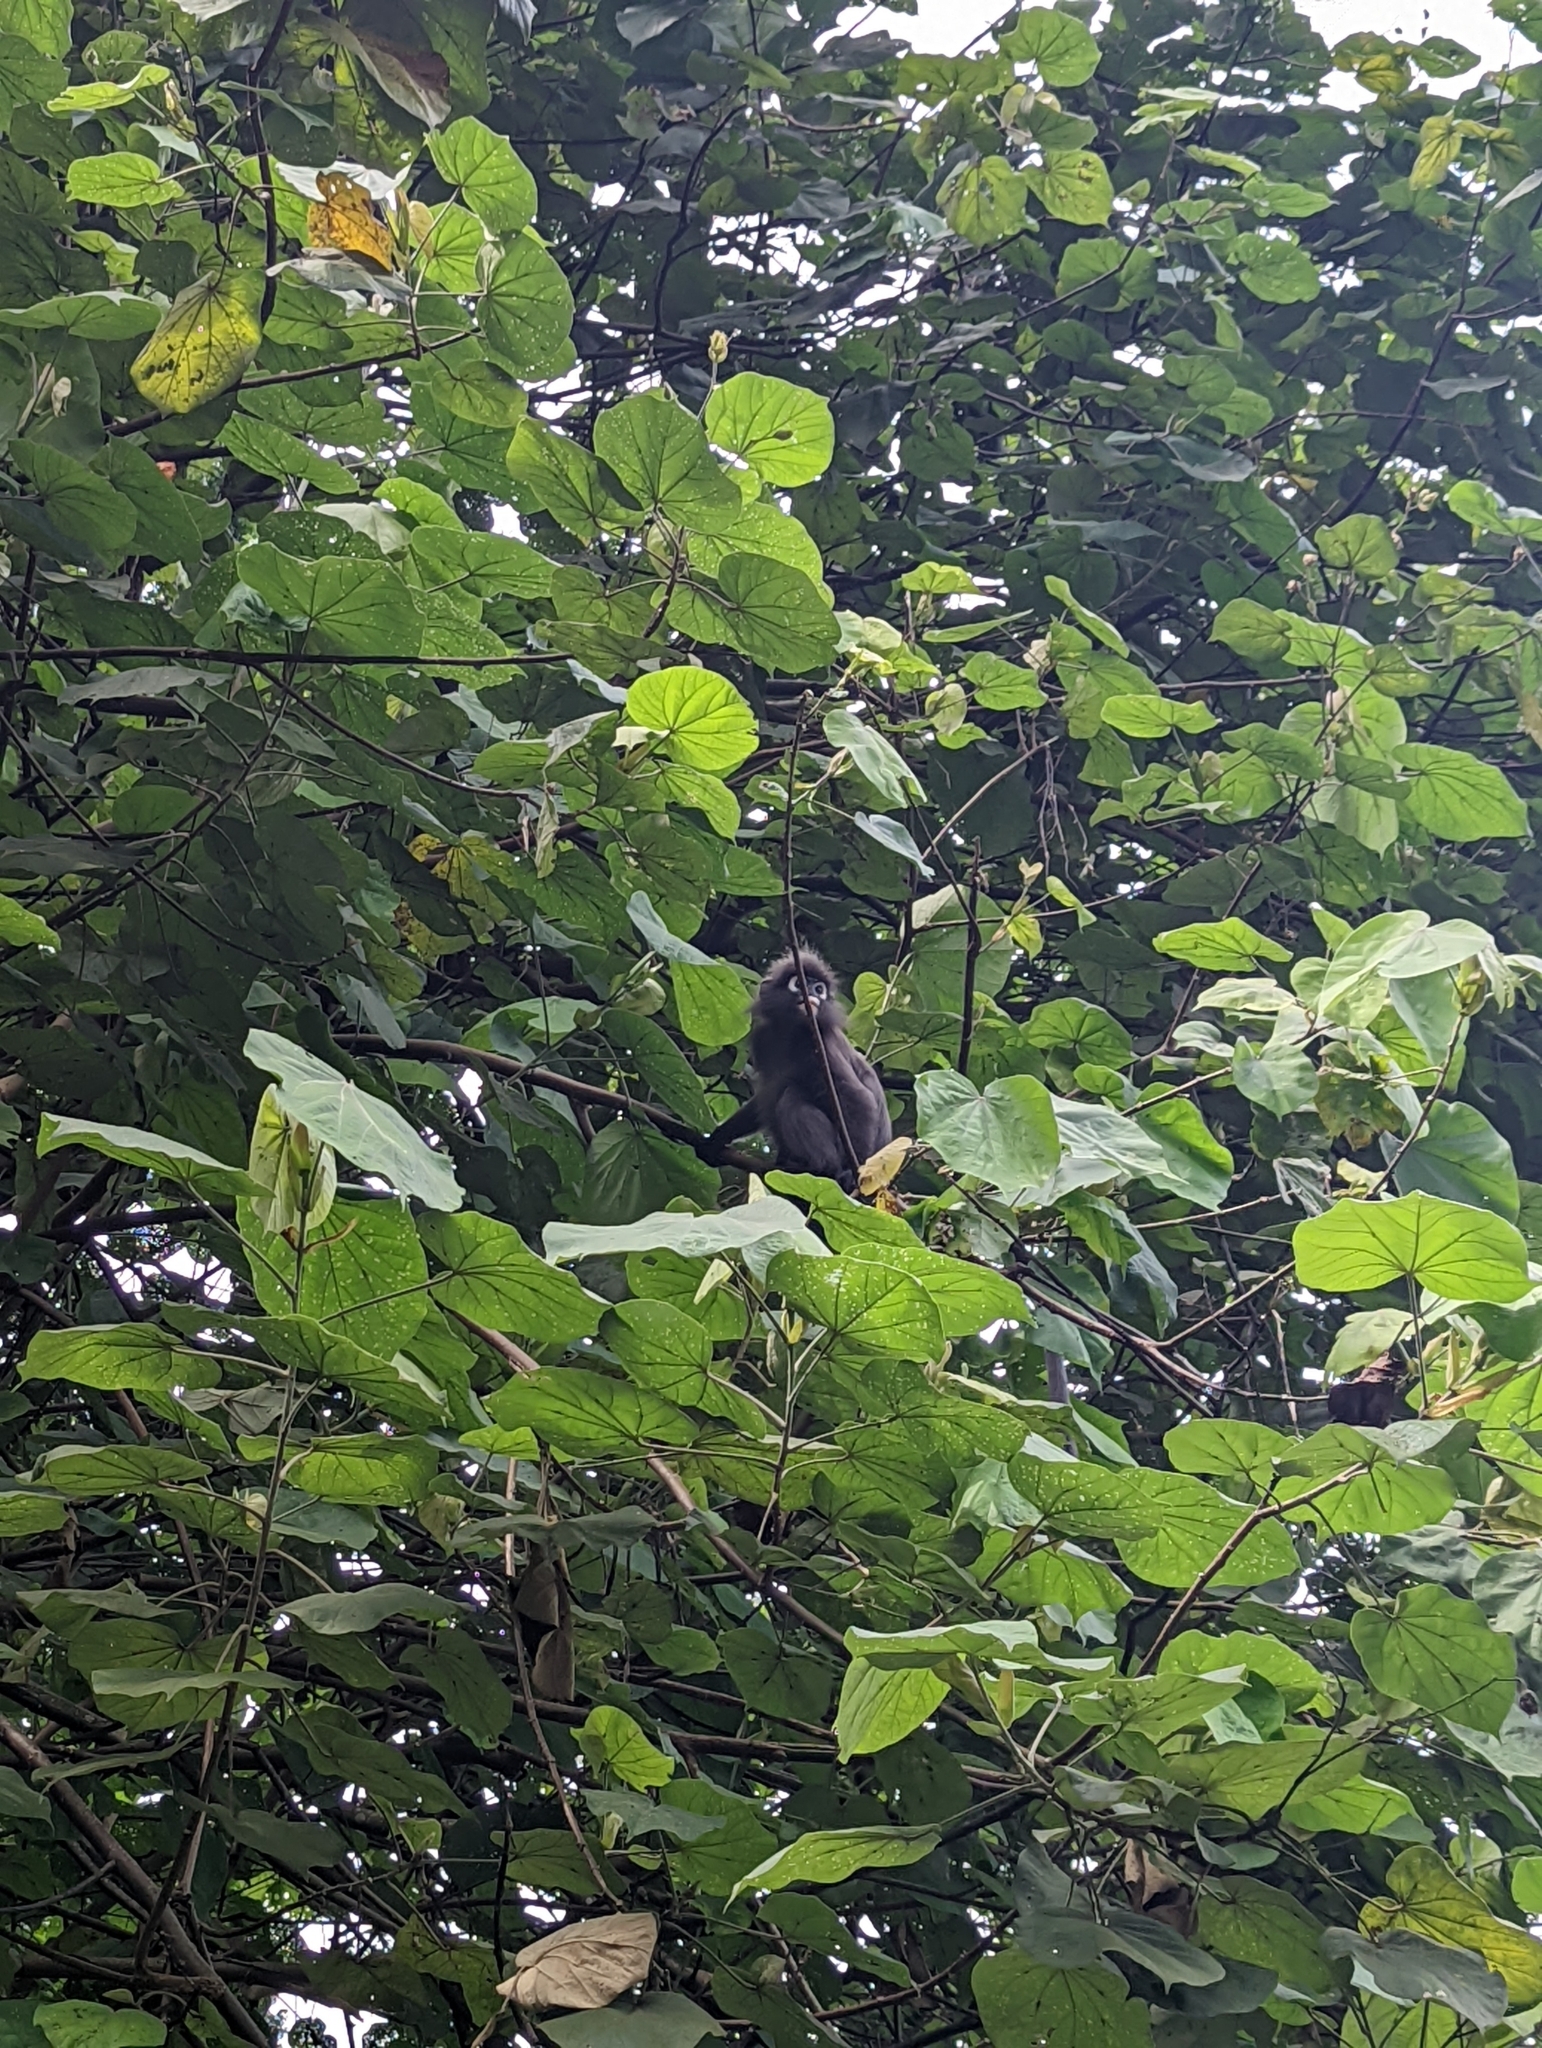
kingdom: Animalia
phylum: Chordata
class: Mammalia
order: Primates
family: Cercopithecidae
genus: Trachypithecus
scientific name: Trachypithecus obscurus
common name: Dusky leaf-monkey
